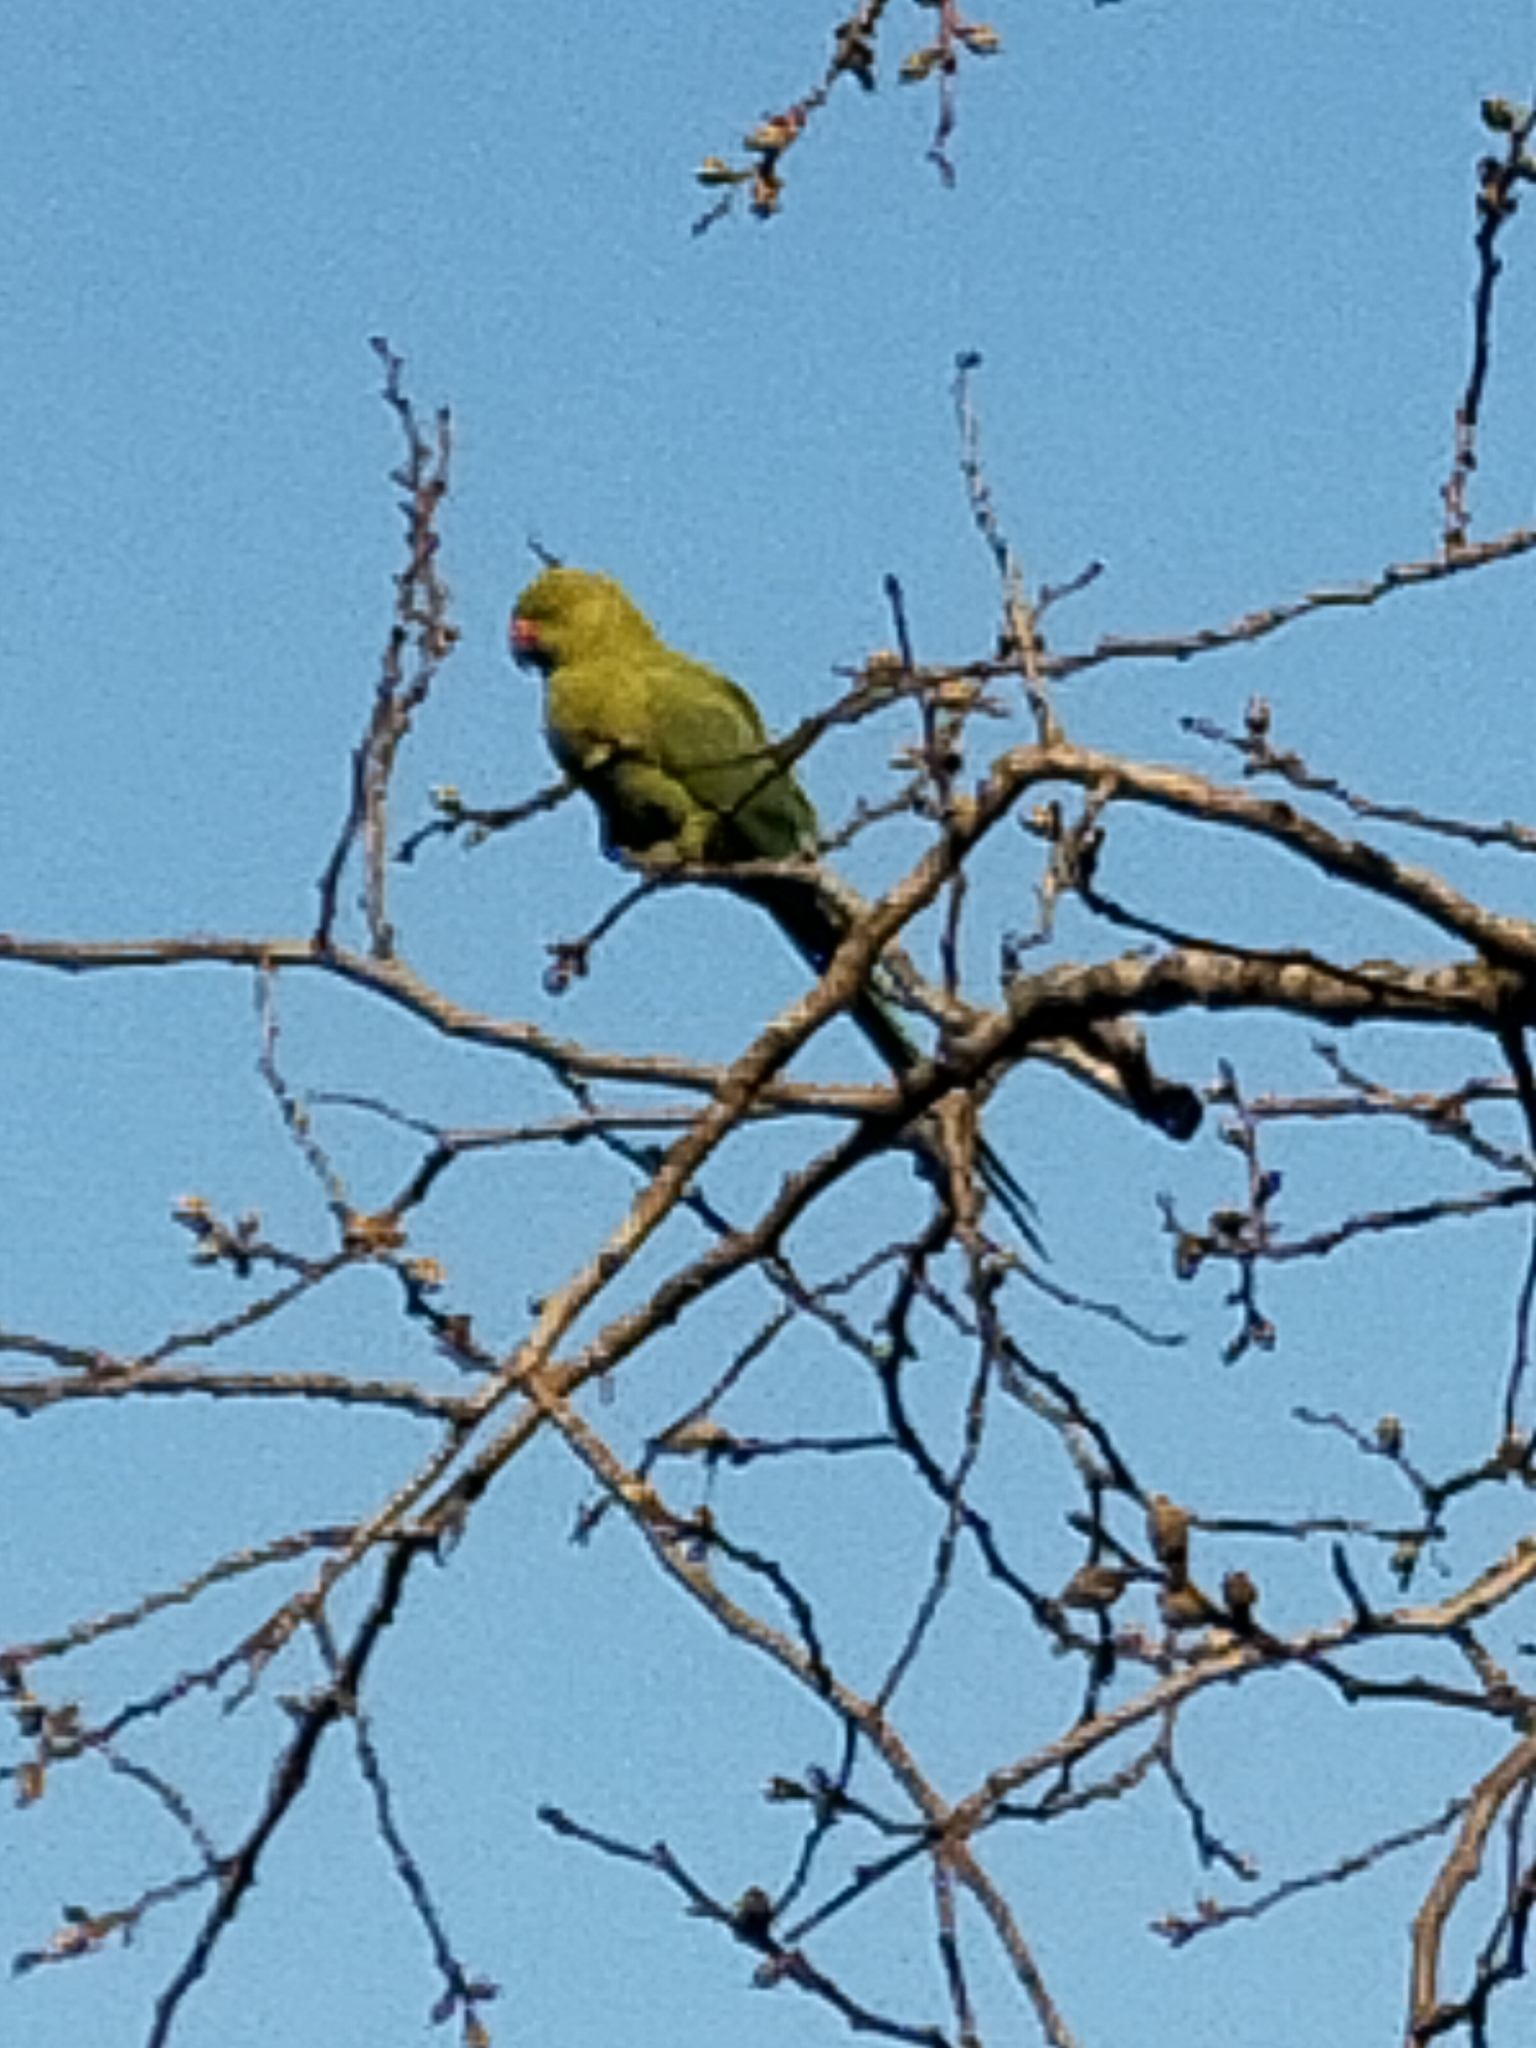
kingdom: Animalia
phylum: Chordata
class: Aves
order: Psittaciformes
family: Psittacidae
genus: Psittacula
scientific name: Psittacula krameri
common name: Rose-ringed parakeet
